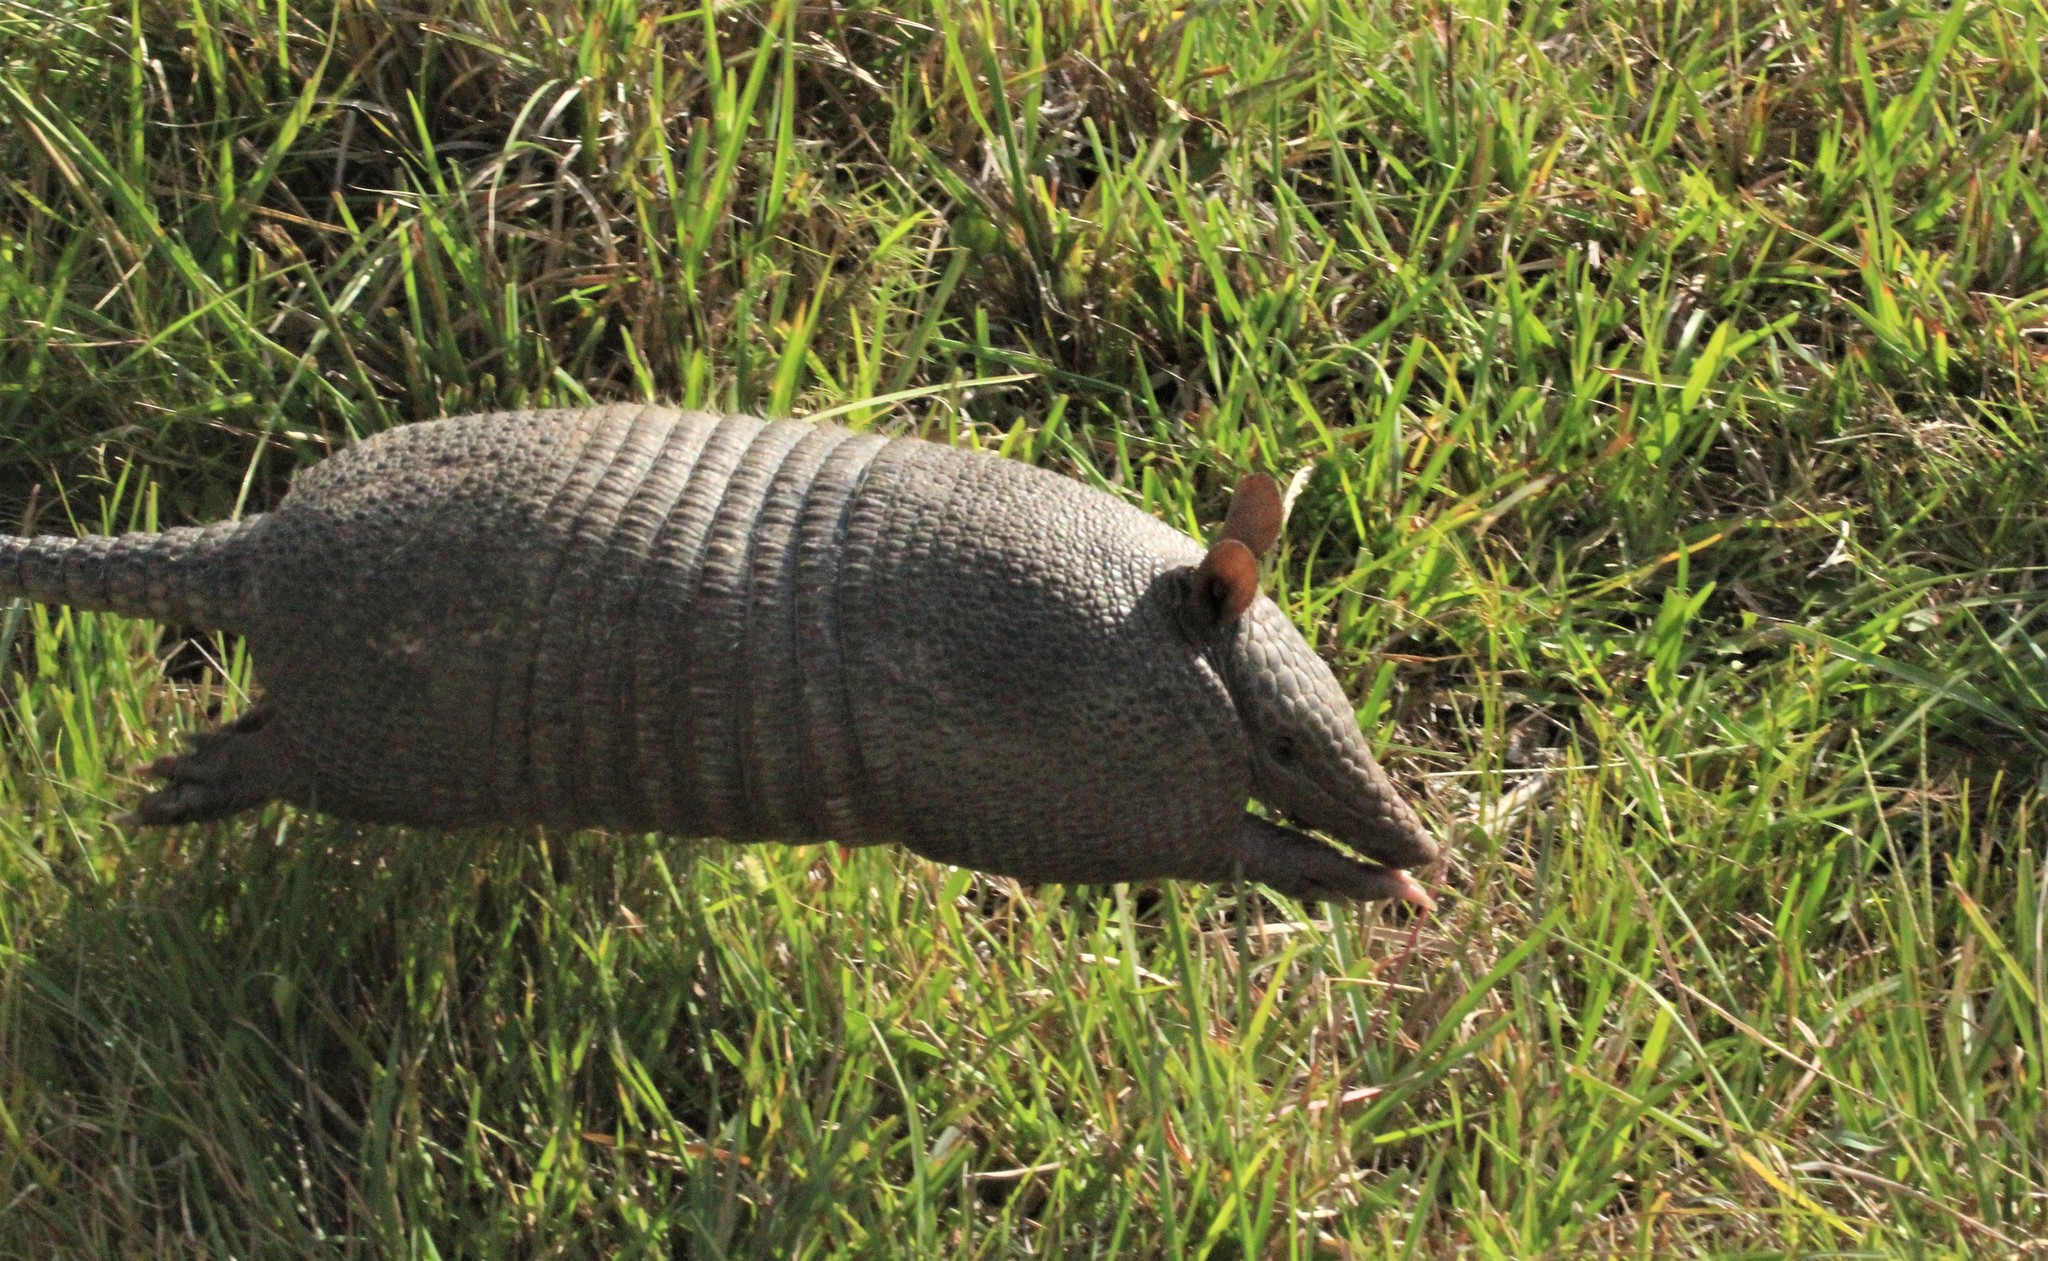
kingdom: Animalia
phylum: Chordata
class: Mammalia
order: Cingulata
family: Dasypodidae
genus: Dasypus
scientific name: Dasypus septemcinctus
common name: Seven-banded armadillo
